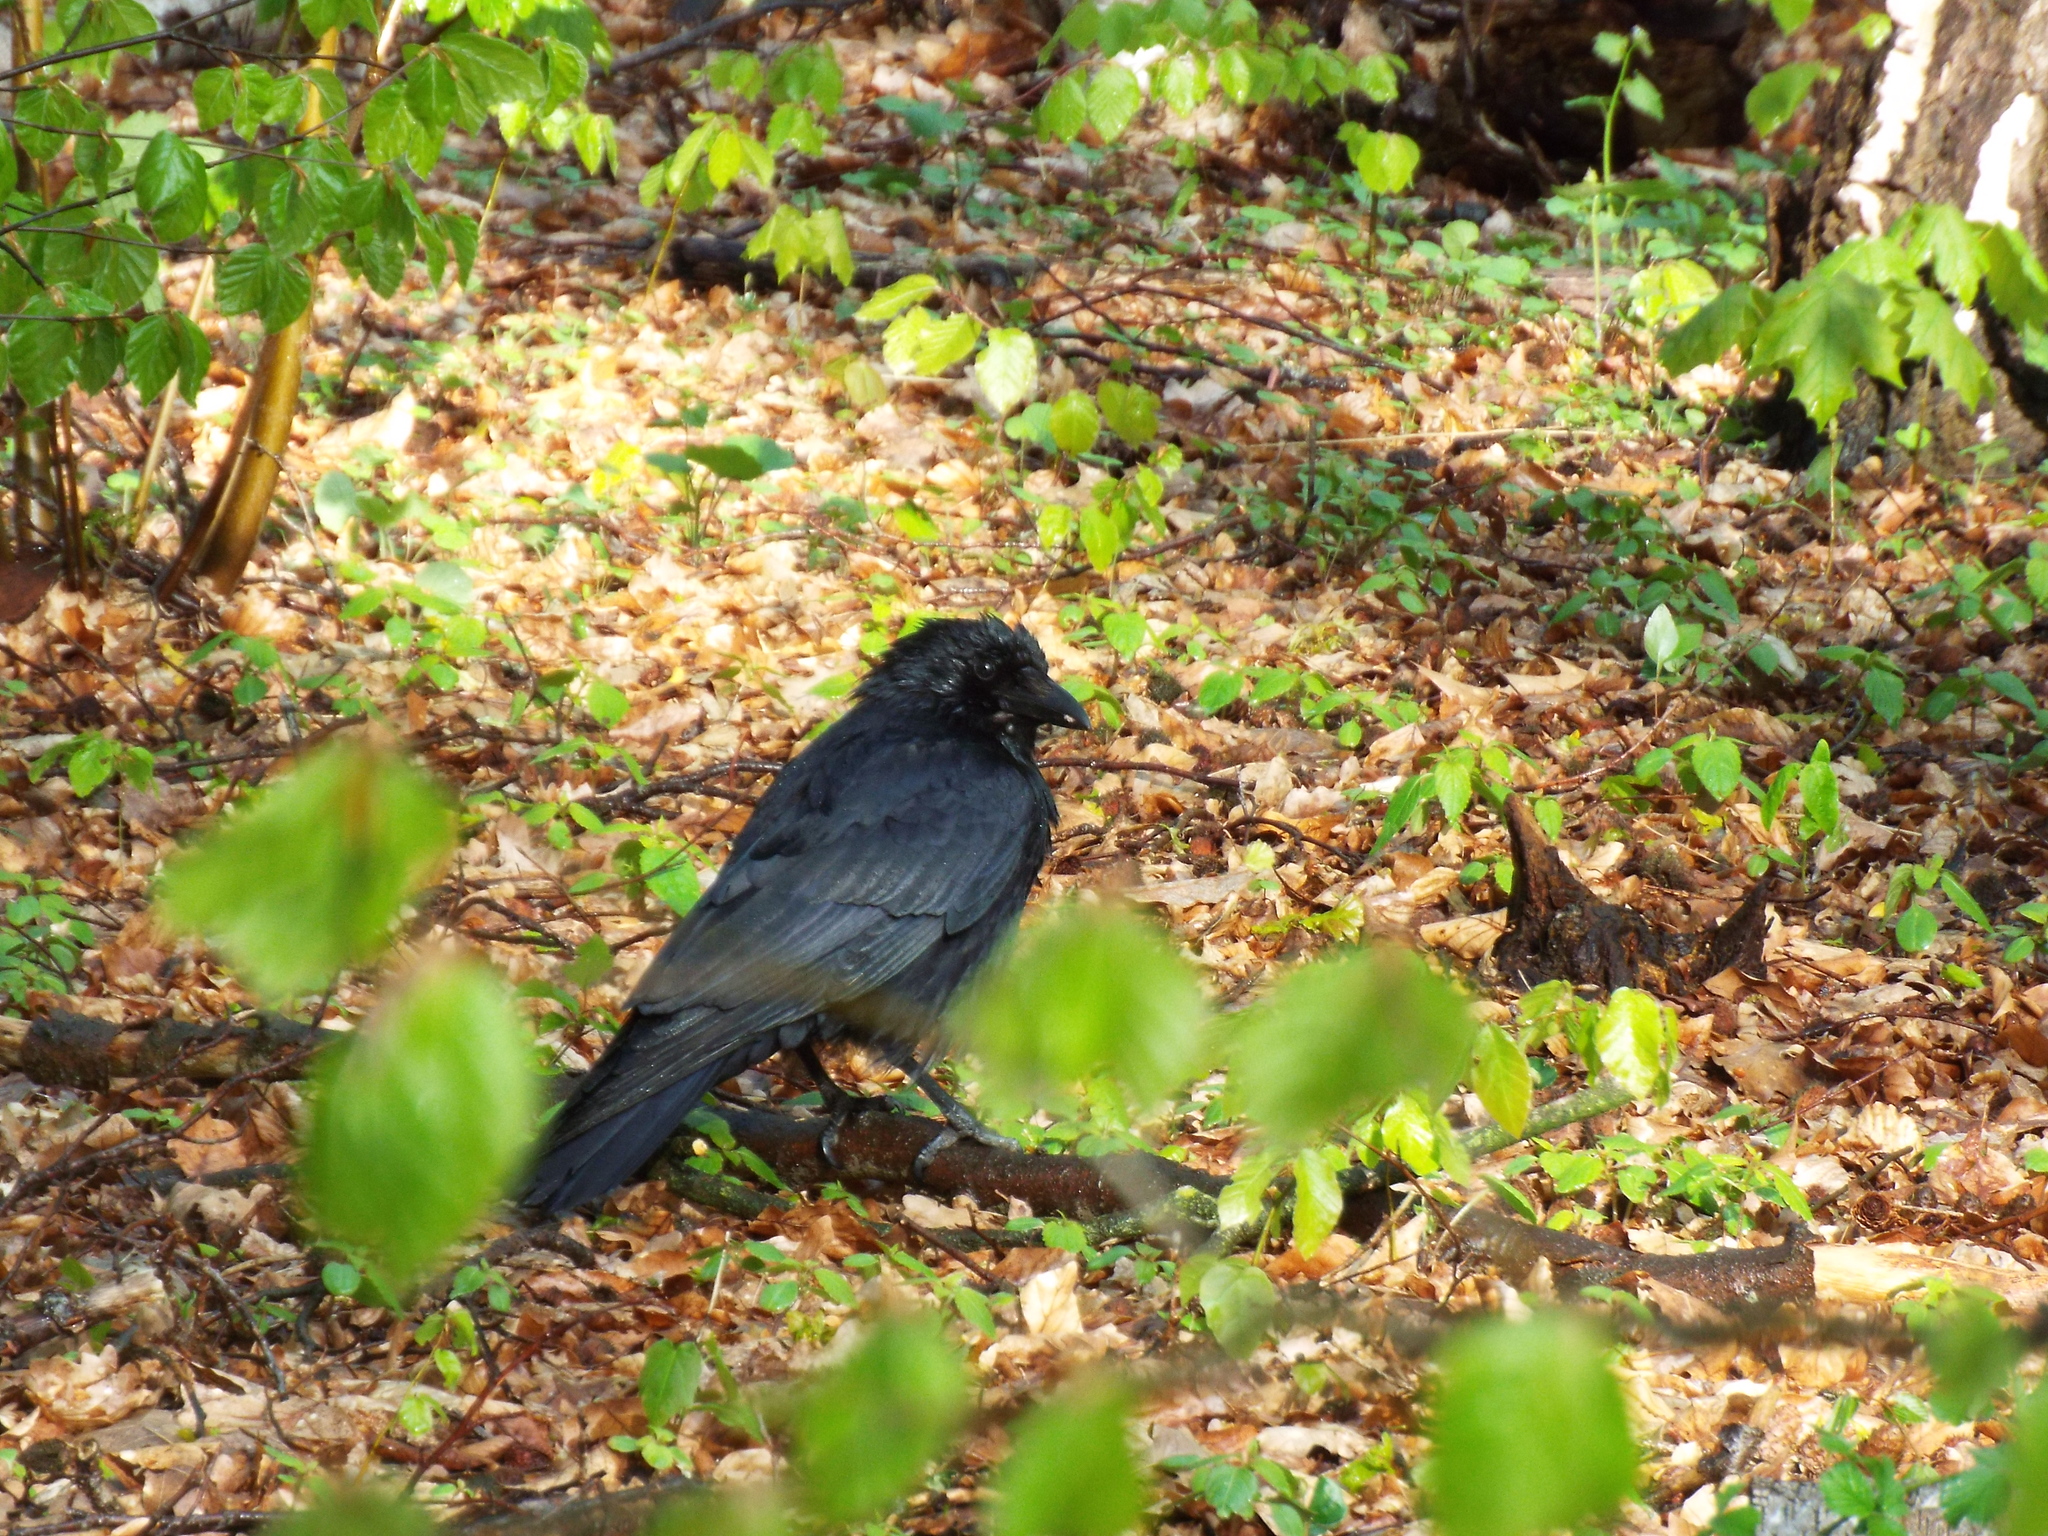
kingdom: Animalia
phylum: Chordata
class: Aves
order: Passeriformes
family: Corvidae
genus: Corvus
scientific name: Corvus corone
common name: Carrion crow
